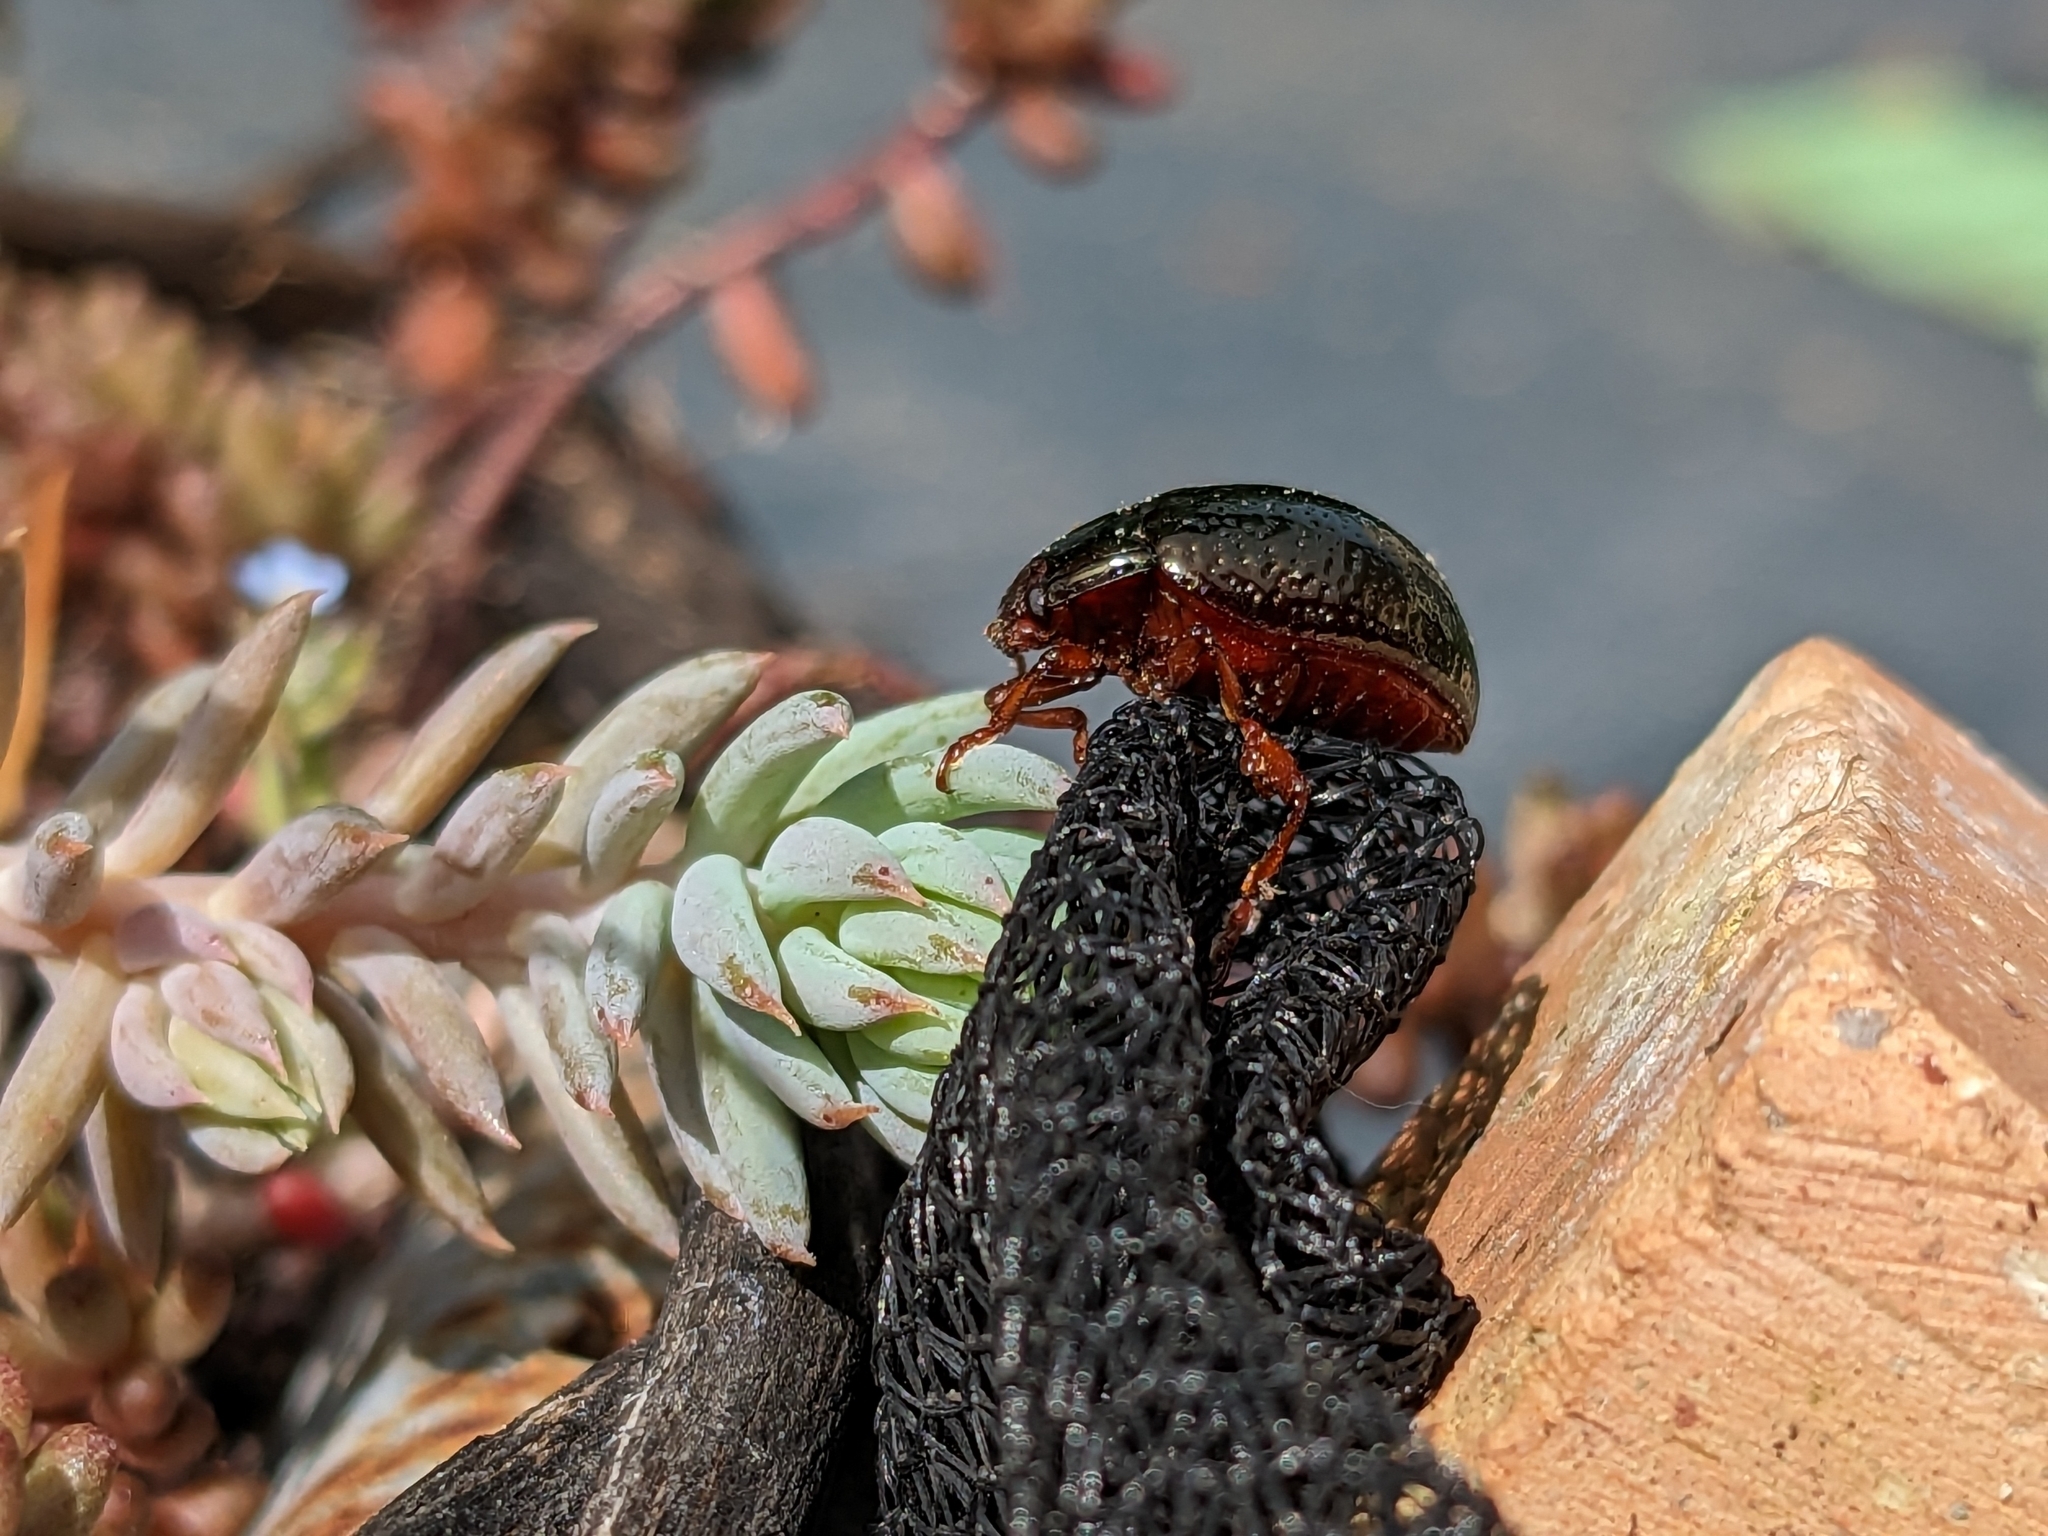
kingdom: Animalia
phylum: Arthropoda
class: Insecta
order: Coleoptera
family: Chrysomelidae
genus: Chrysolina
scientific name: Chrysolina bankii
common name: Leaf beetle
